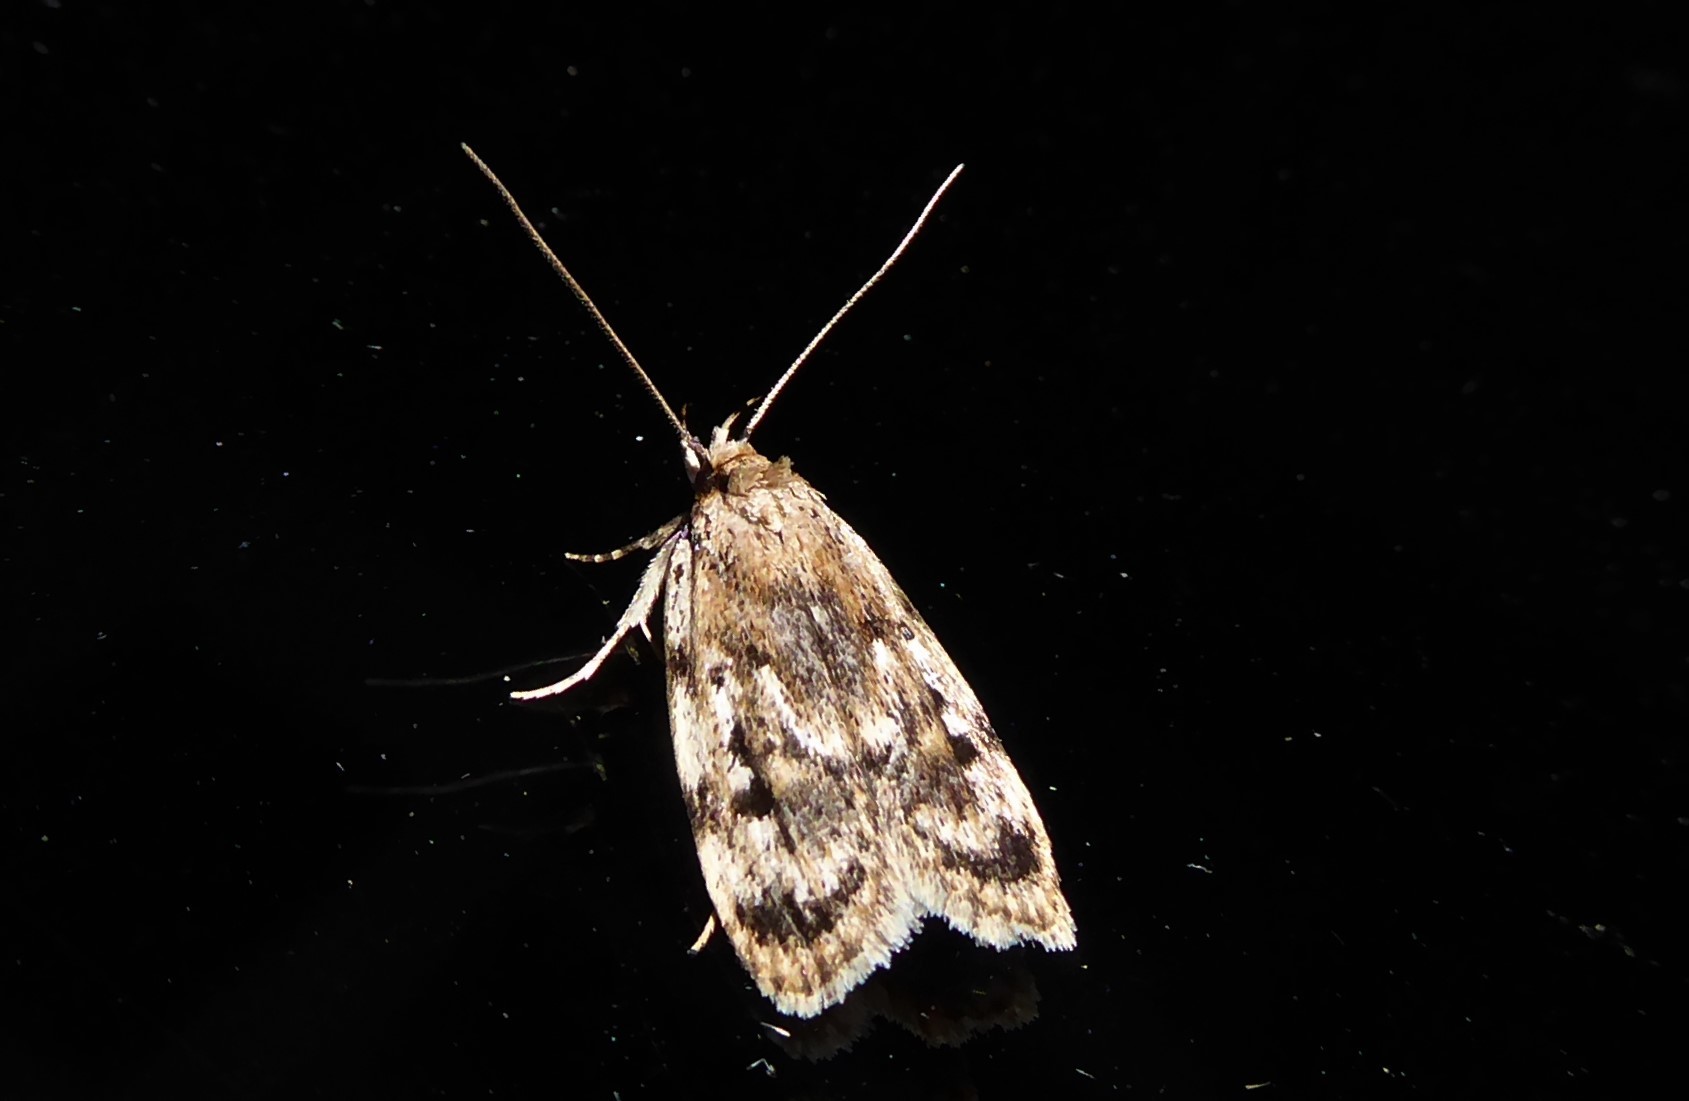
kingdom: Animalia
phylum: Arthropoda
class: Insecta
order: Lepidoptera
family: Oecophoridae
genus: Barea
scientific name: Barea exarcha
